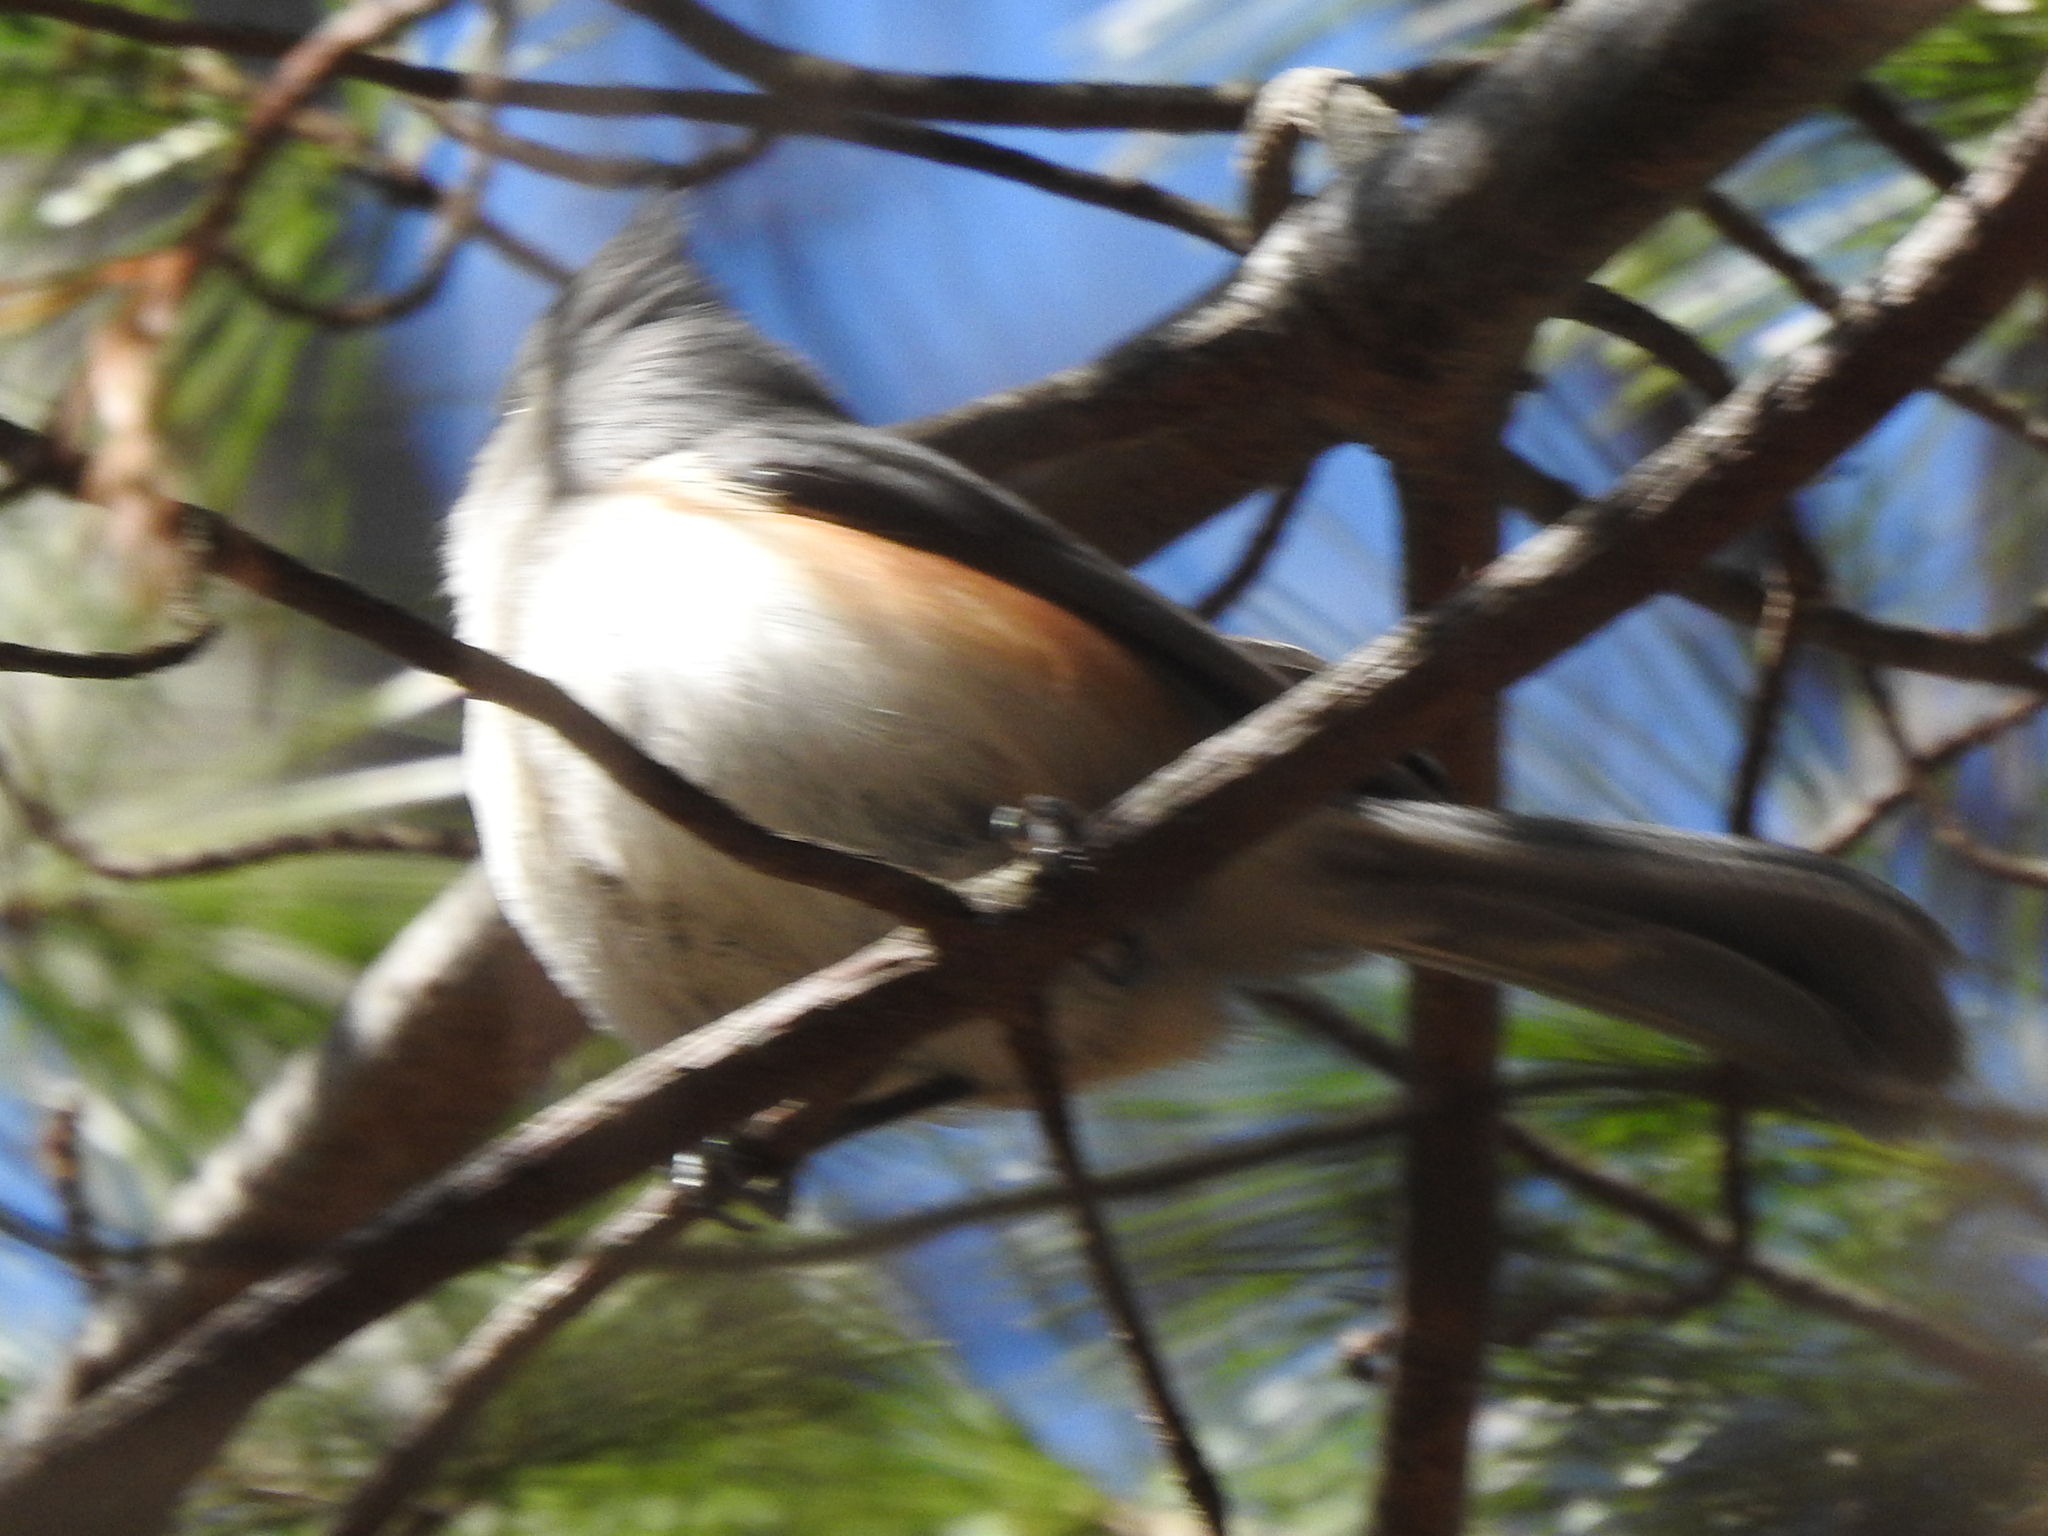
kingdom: Animalia
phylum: Chordata
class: Aves
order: Passeriformes
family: Paridae
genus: Baeolophus
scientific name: Baeolophus bicolor
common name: Tufted titmouse
